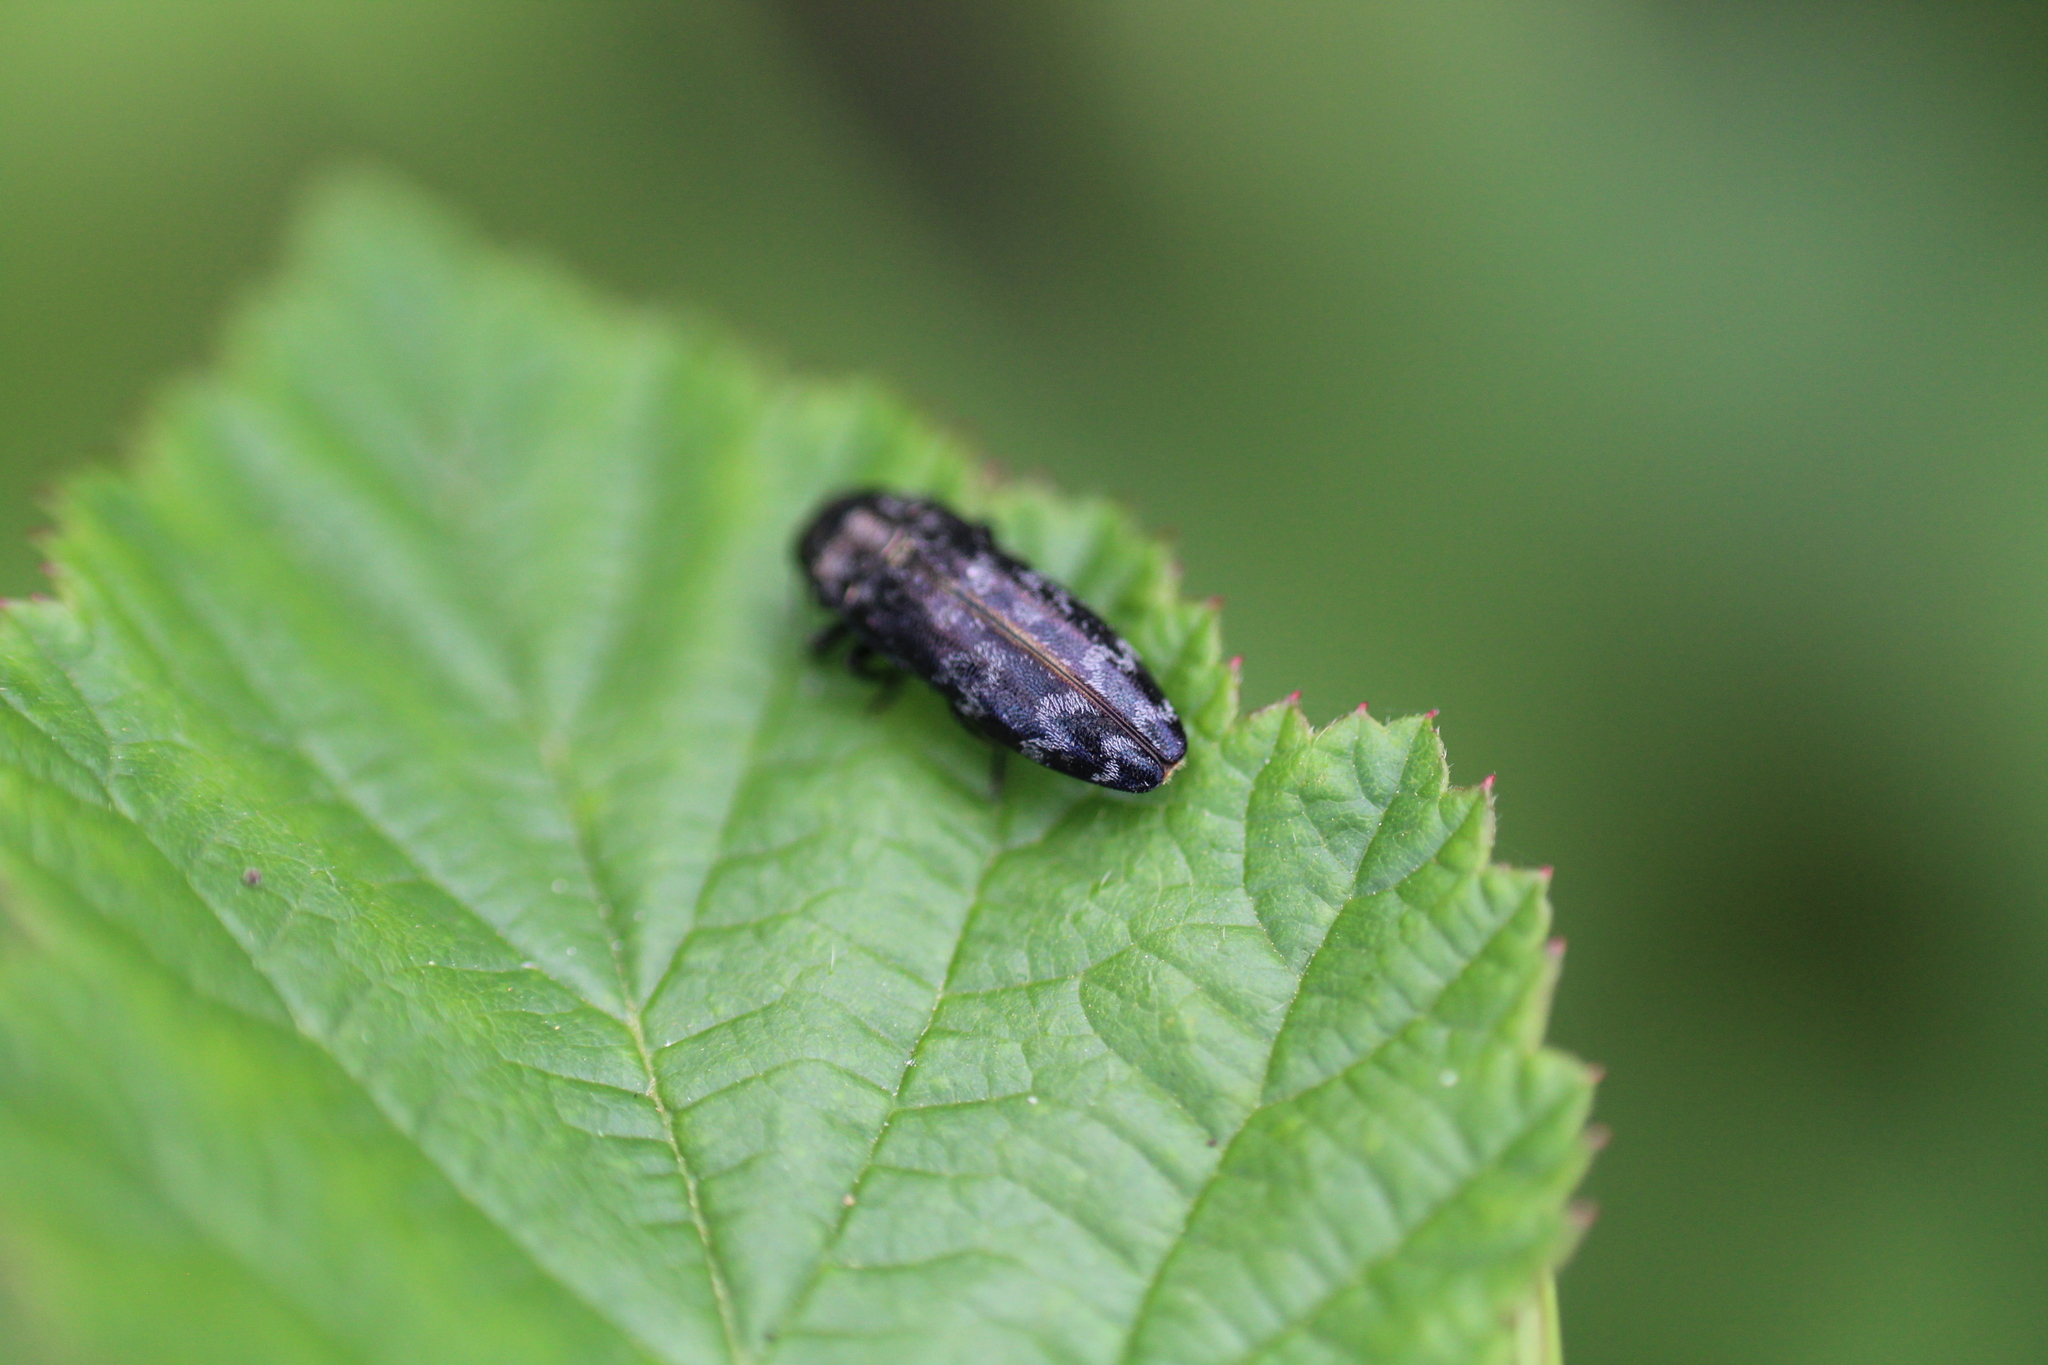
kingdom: Animalia
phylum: Arthropoda
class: Insecta
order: Coleoptera
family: Buprestidae
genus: Coraebus
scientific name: Coraebus rubi
